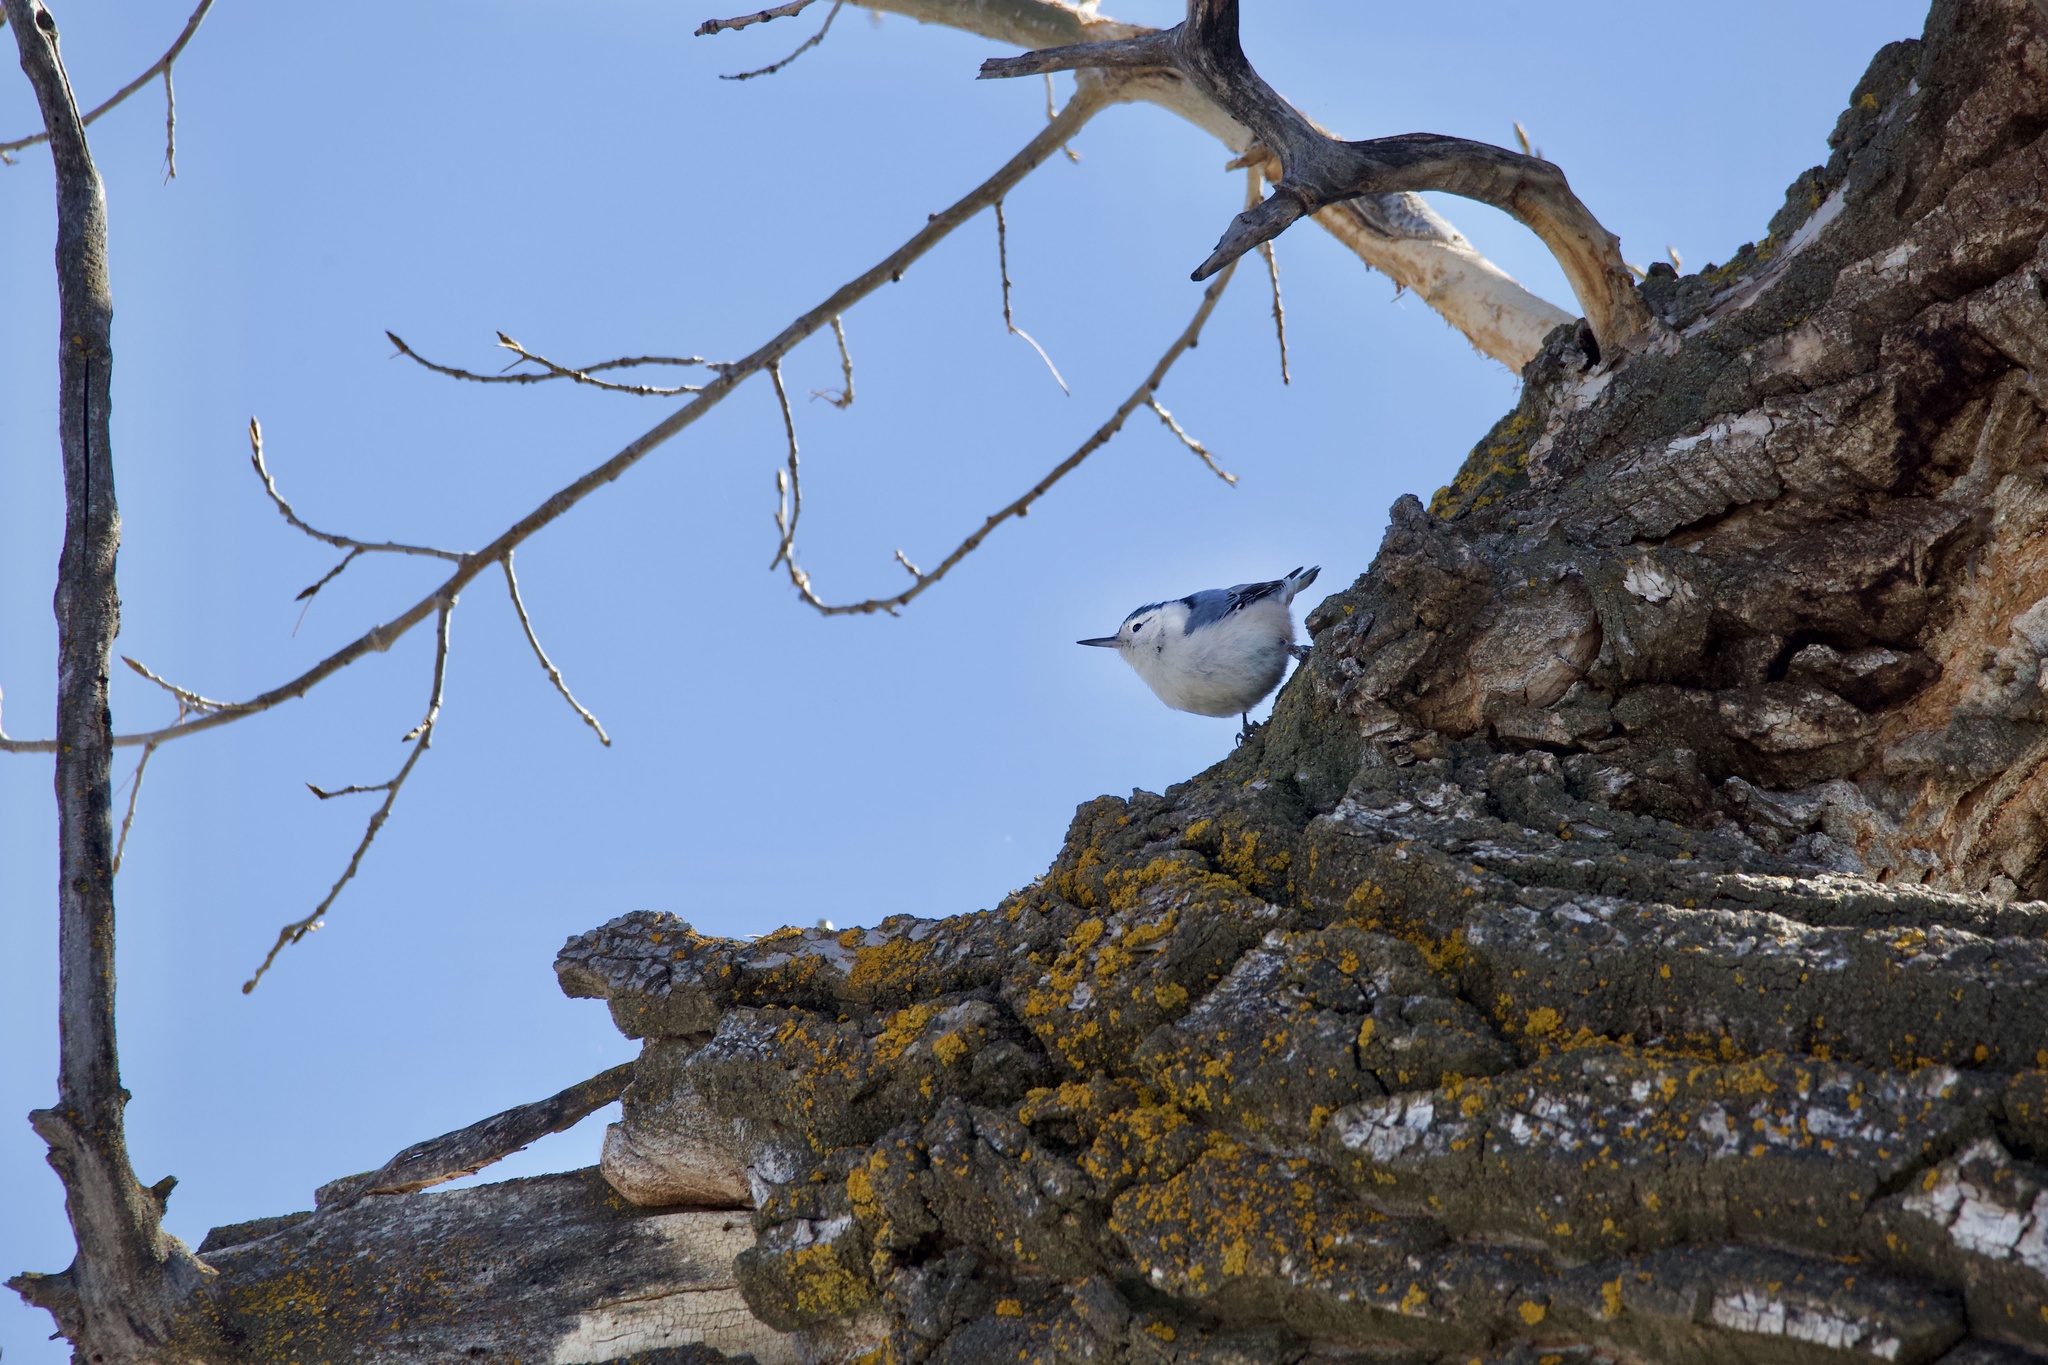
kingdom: Animalia
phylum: Chordata
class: Aves
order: Passeriformes
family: Sittidae
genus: Sitta
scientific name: Sitta carolinensis
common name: White-breasted nuthatch
